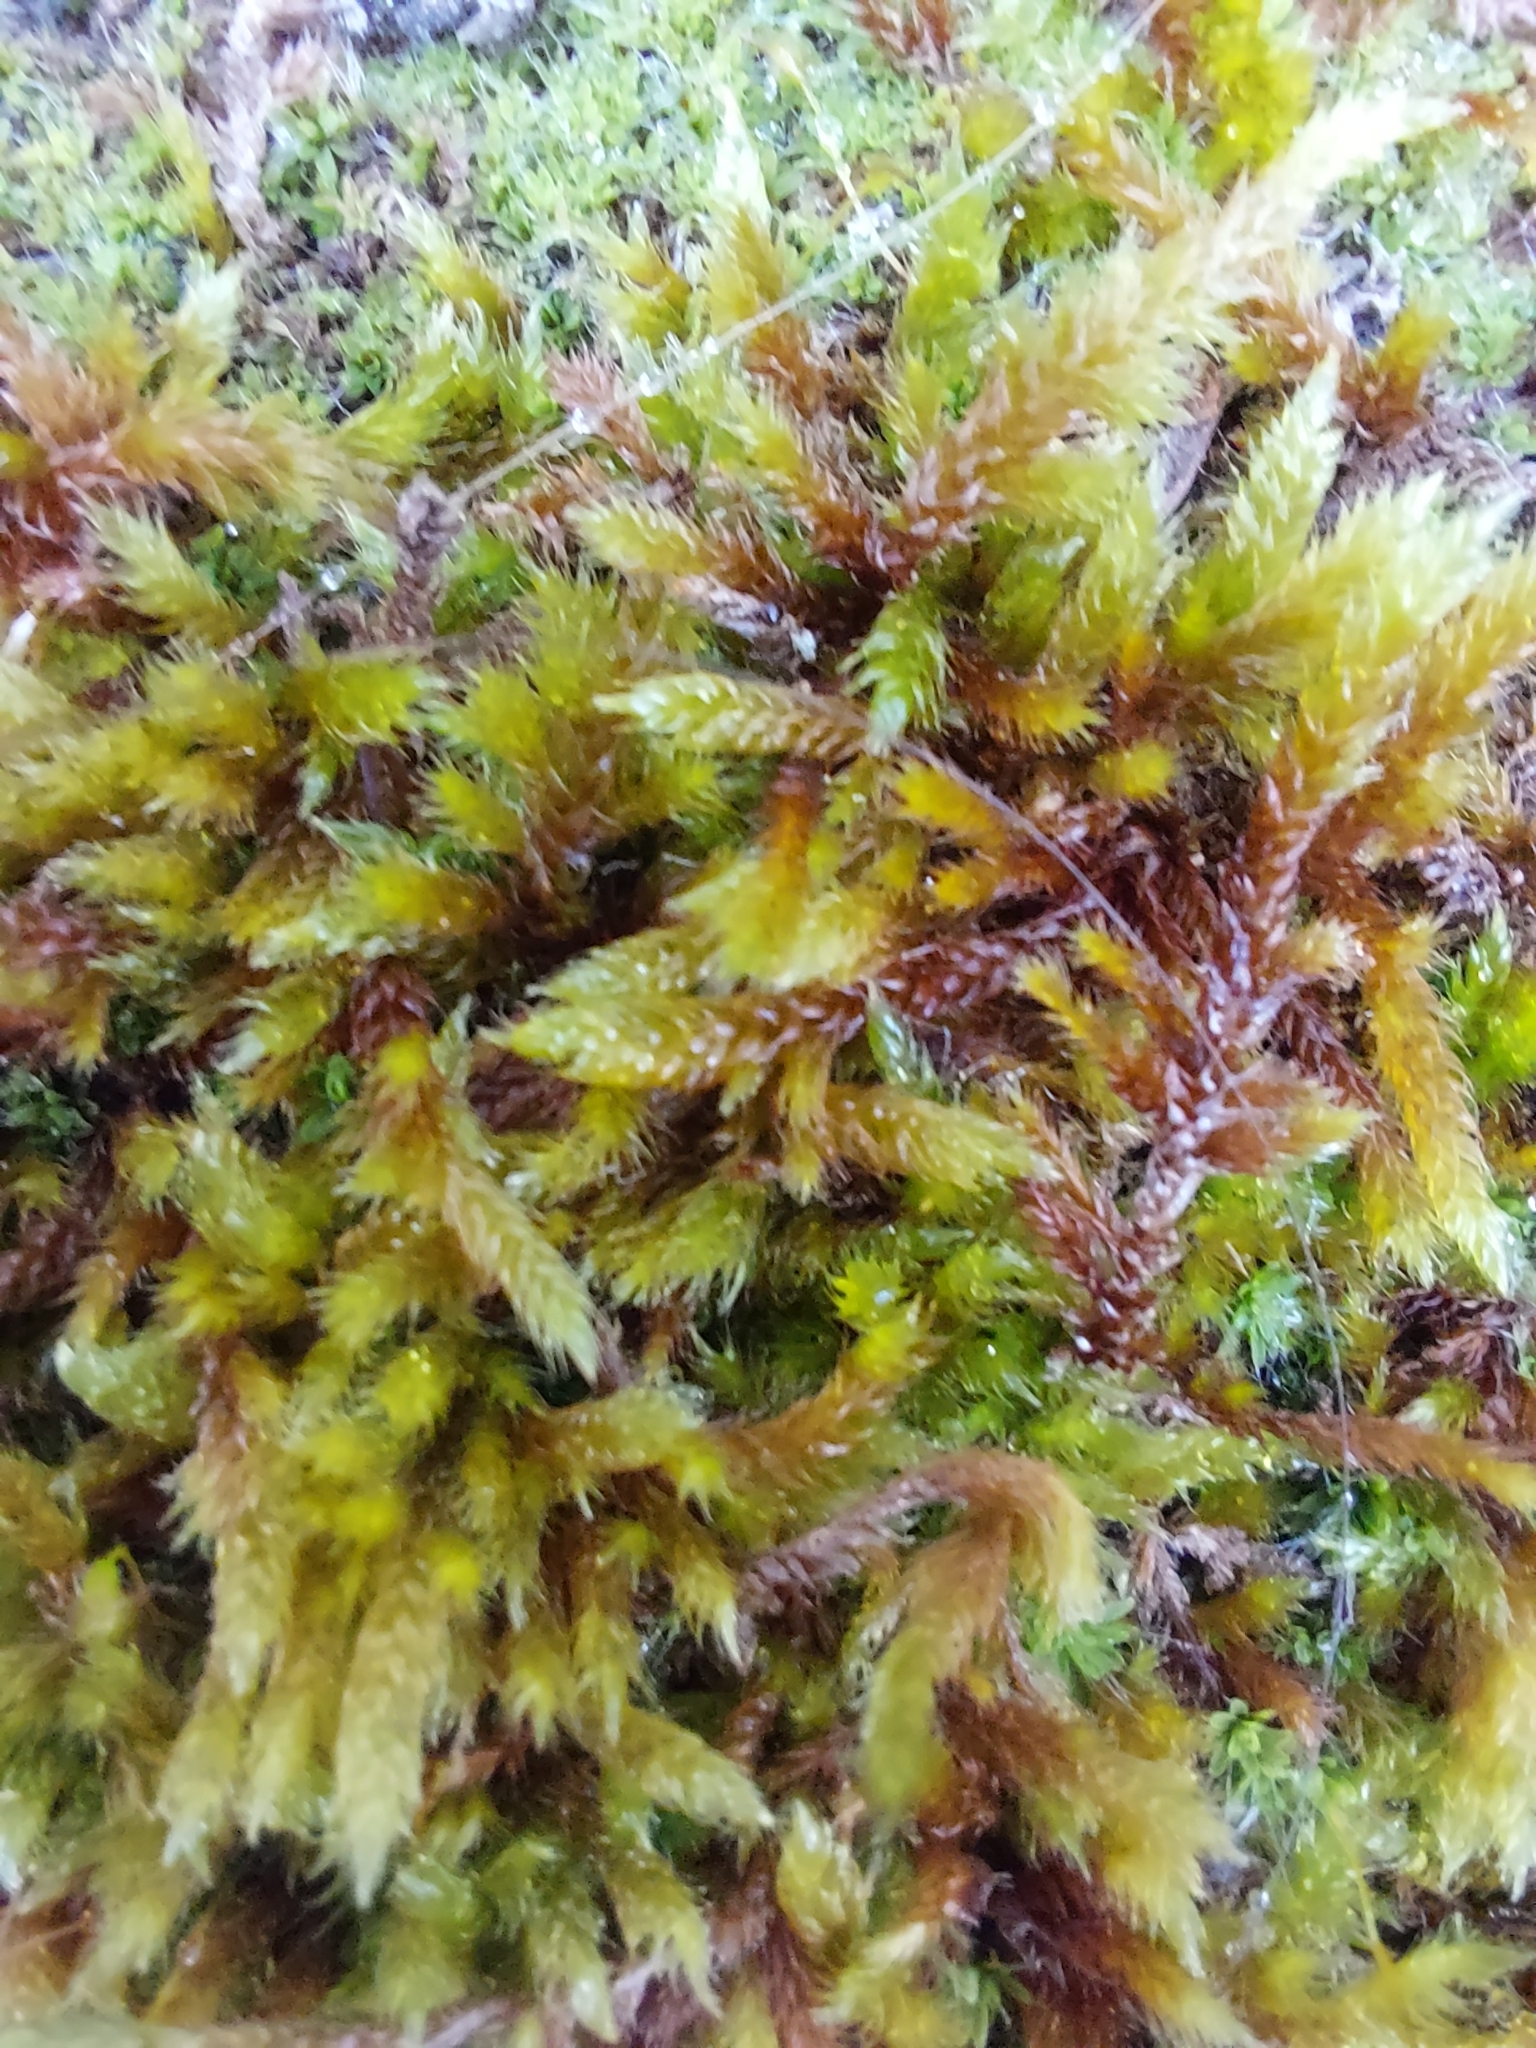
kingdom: Plantae
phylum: Bryophyta
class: Bryopsida
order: Hypnales
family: Hypnaceae
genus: Hypnum
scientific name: Hypnum cupressiforme
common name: Cypress-leaved plait-moss
